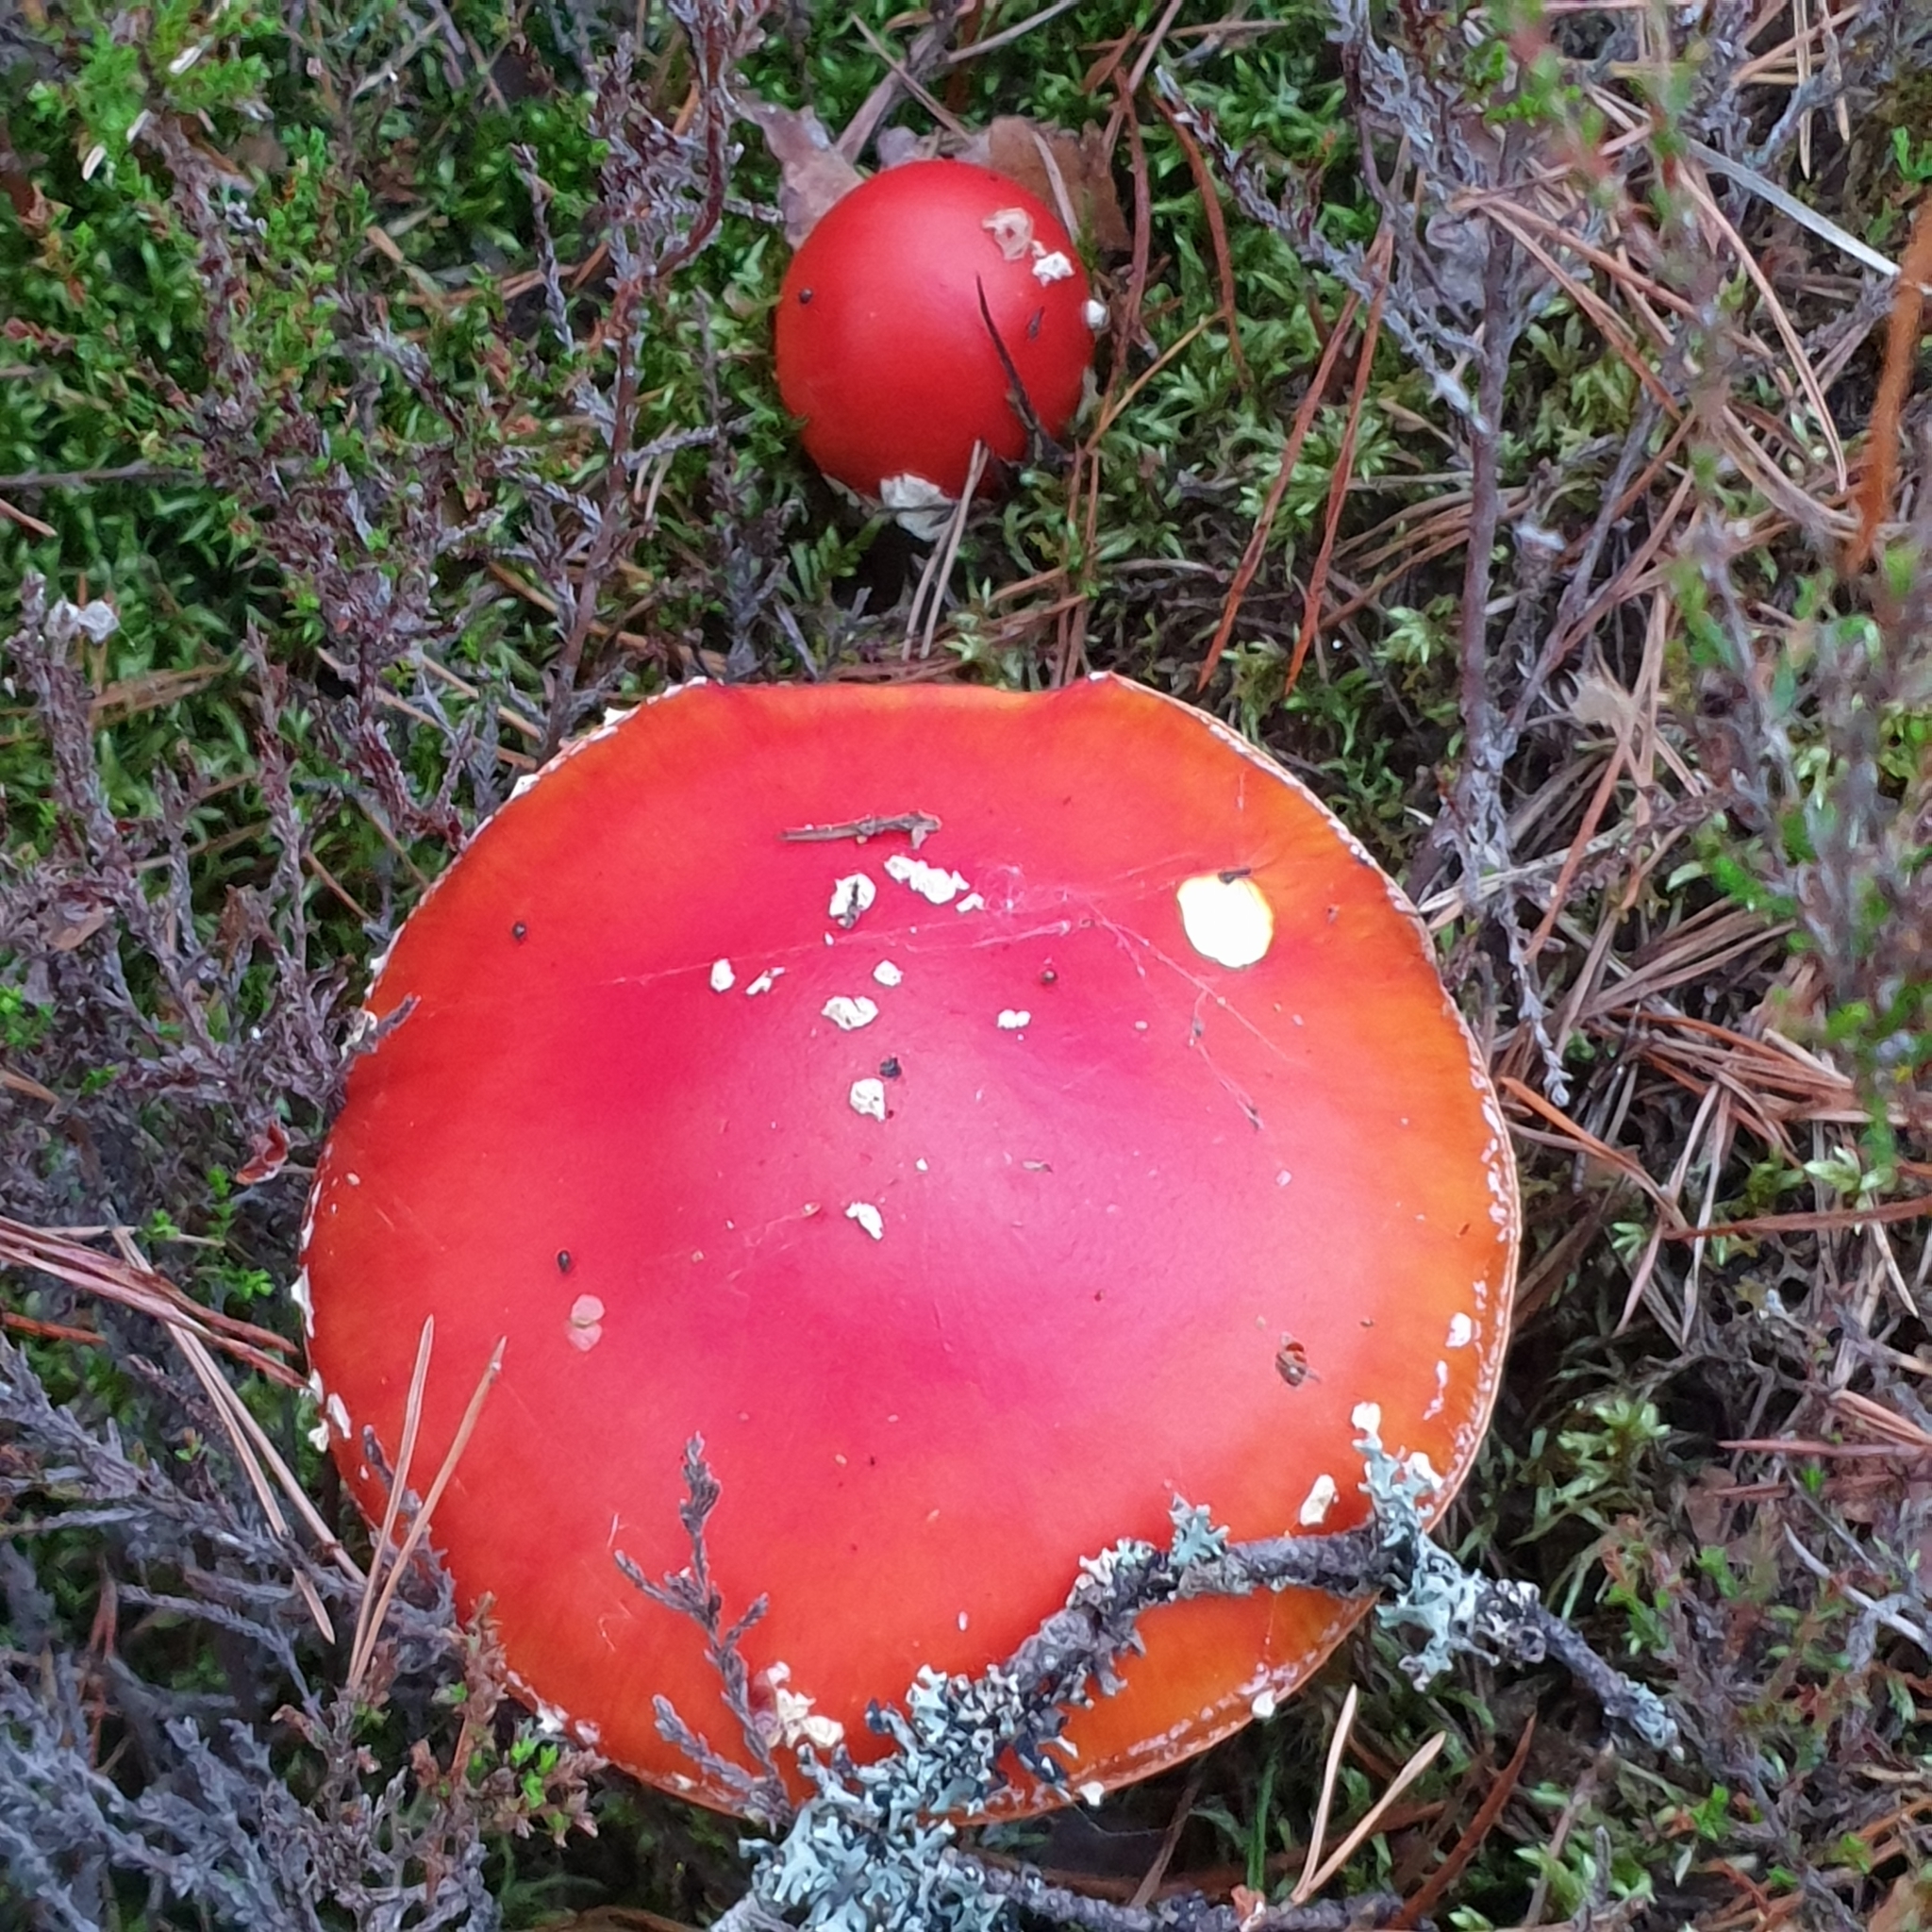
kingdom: Fungi
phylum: Basidiomycota
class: Agaricomycetes
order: Agaricales
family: Amanitaceae
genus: Amanita
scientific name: Amanita muscaria
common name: Fly agaric
